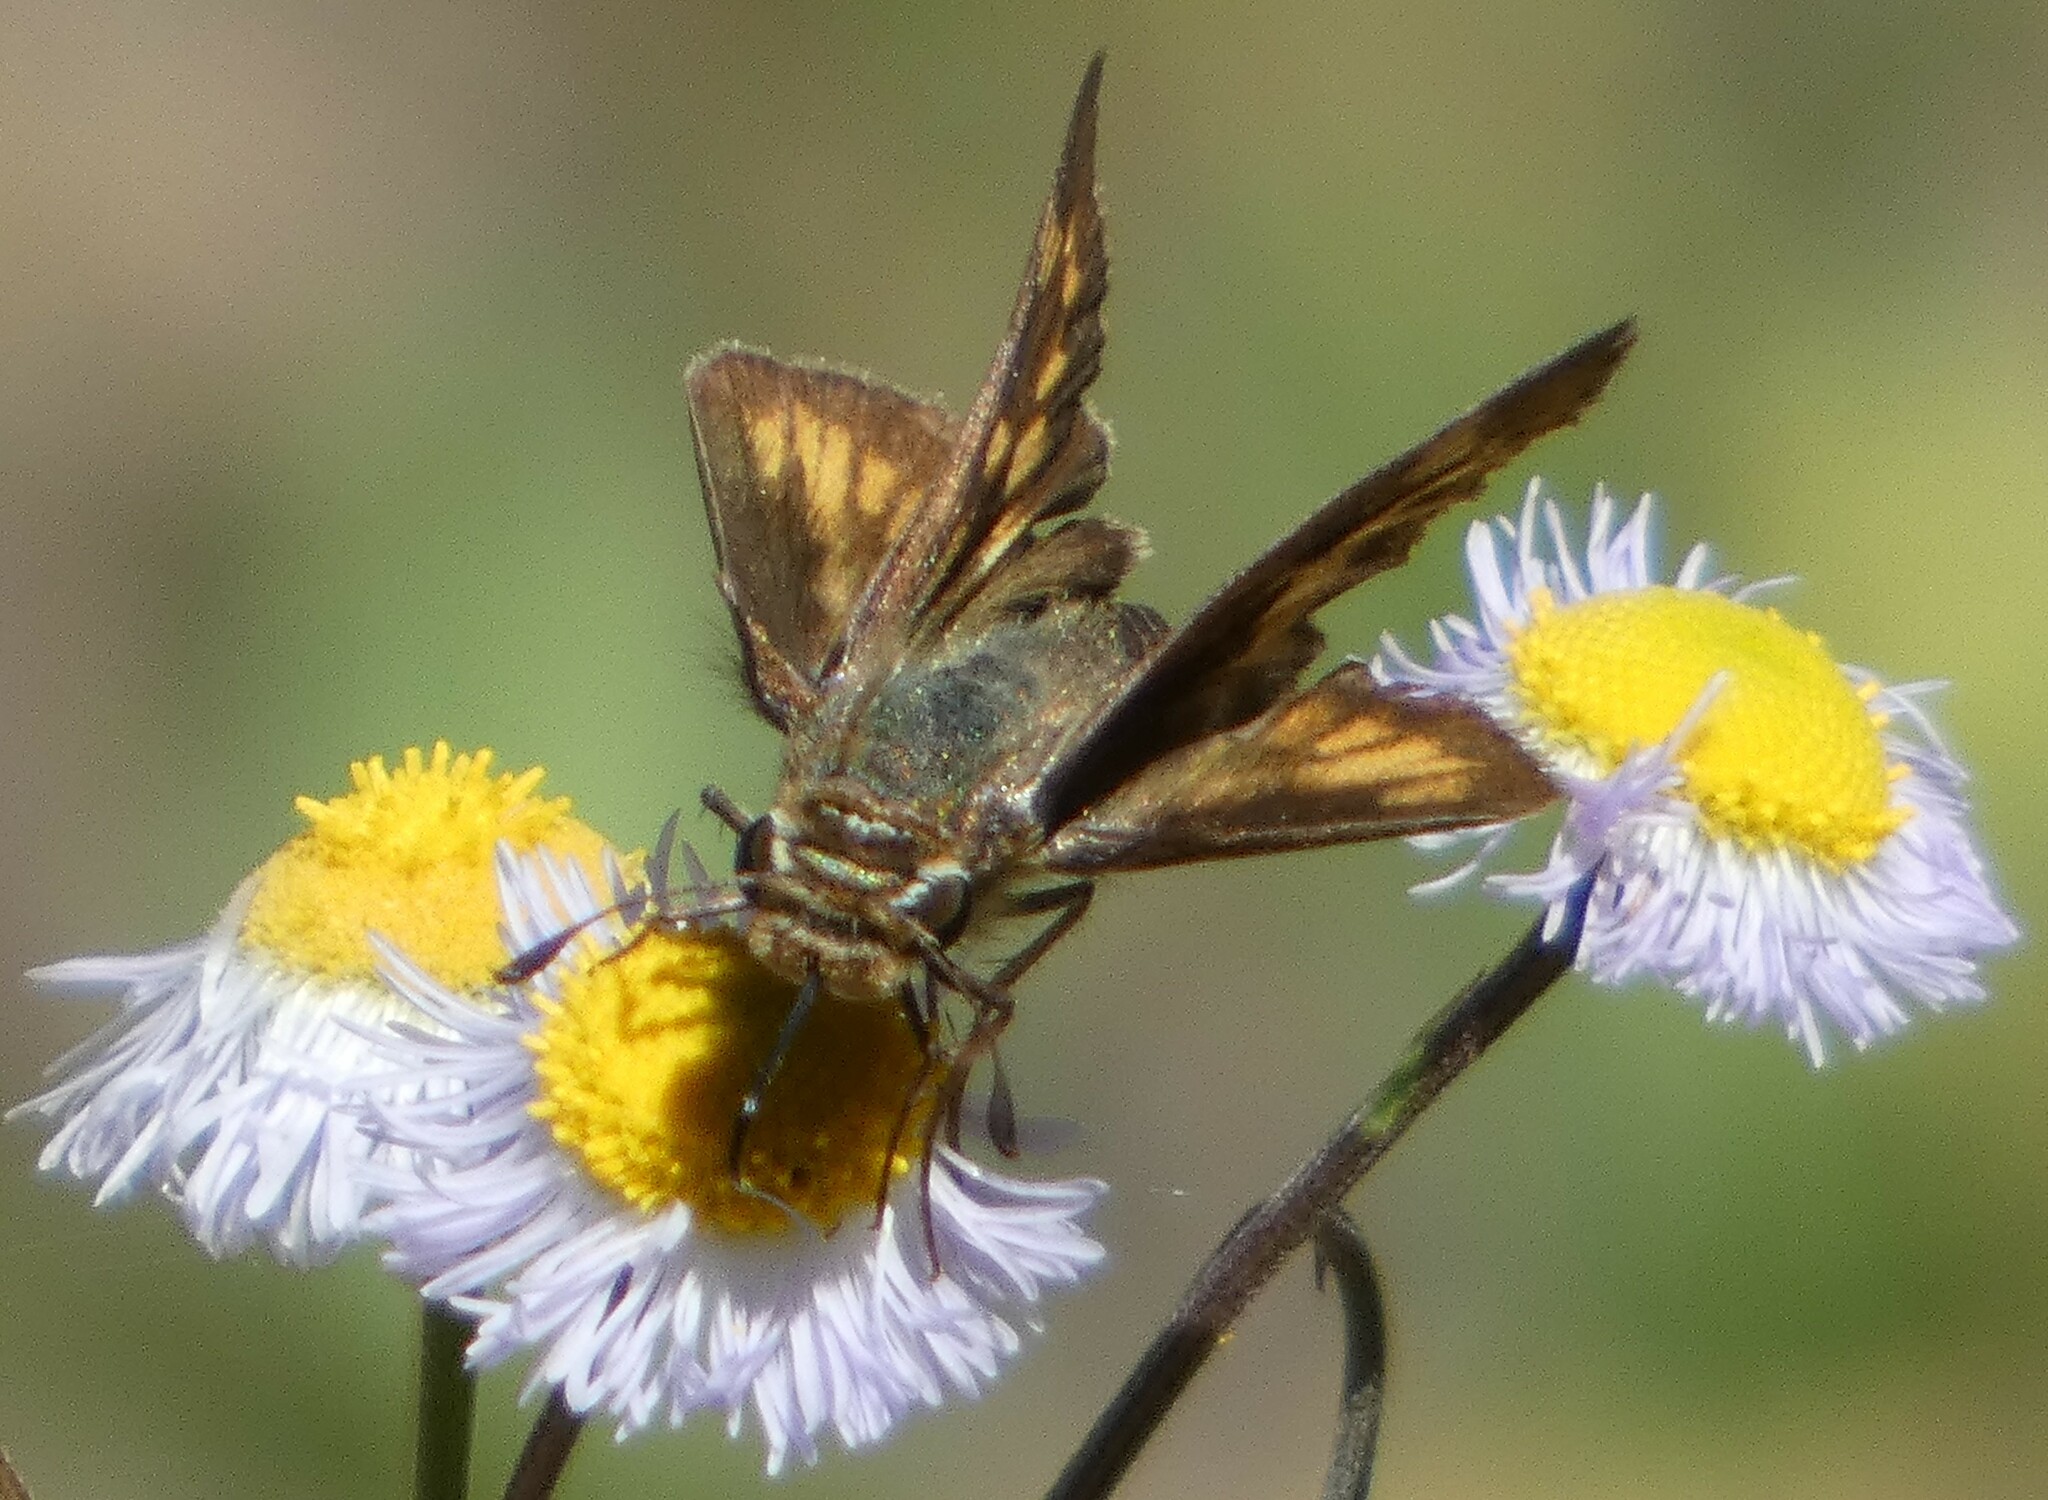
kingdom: Animalia
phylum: Arthropoda
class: Insecta
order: Lepidoptera
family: Hesperiidae
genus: Hylephila
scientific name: Hylephila phyleus
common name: Fiery skipper
